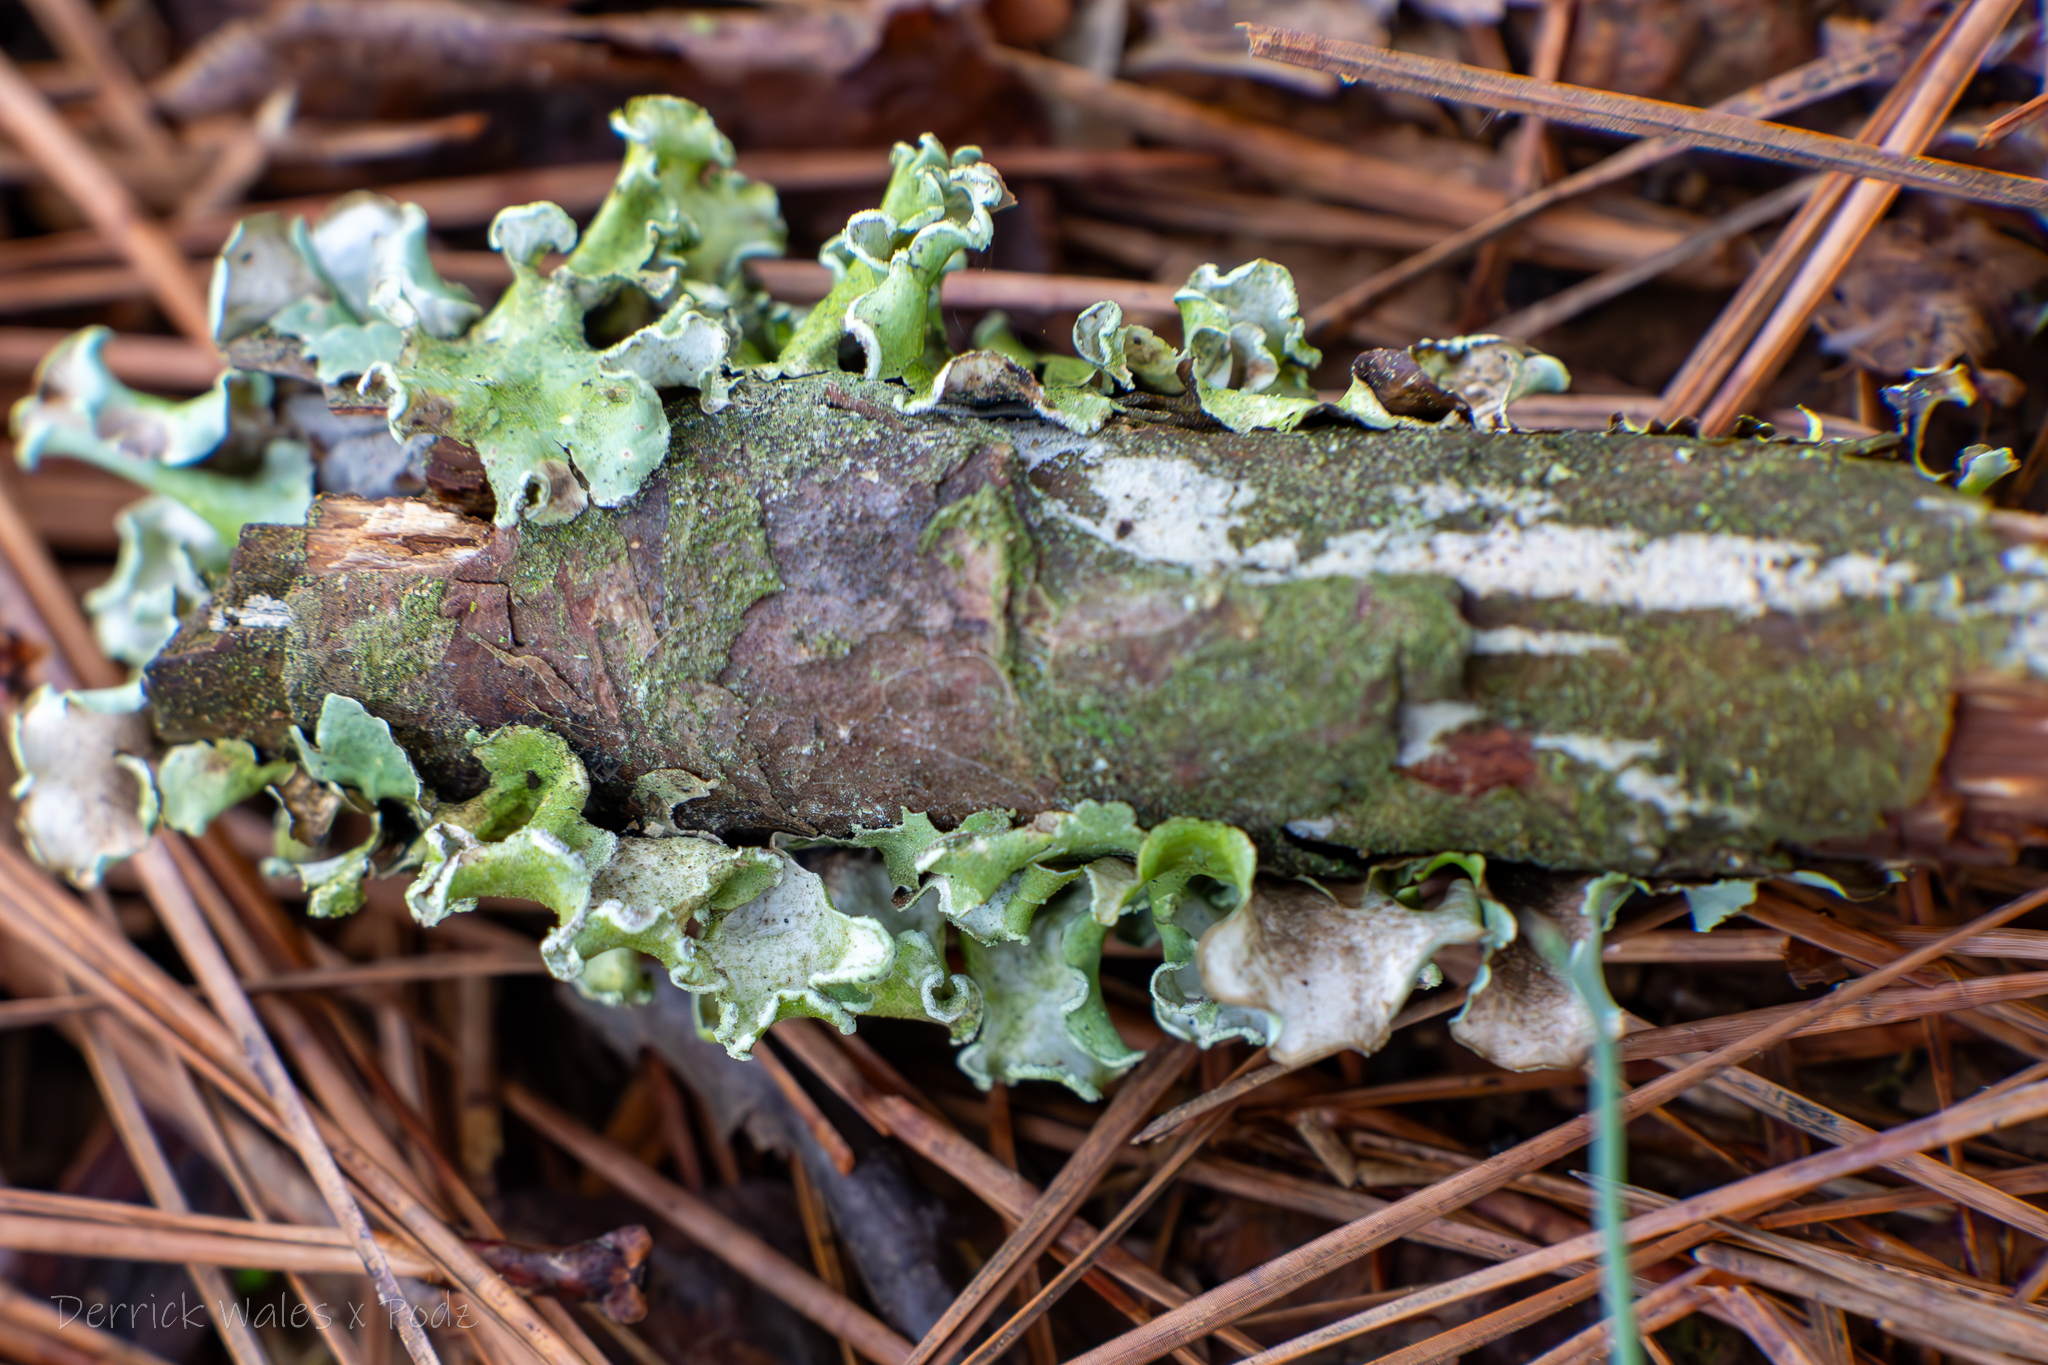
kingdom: Fungi
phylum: Ascomycota
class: Lecanoromycetes
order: Lecanorales
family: Parmeliaceae
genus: Parmotrema
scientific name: Parmotrema austrosinense
